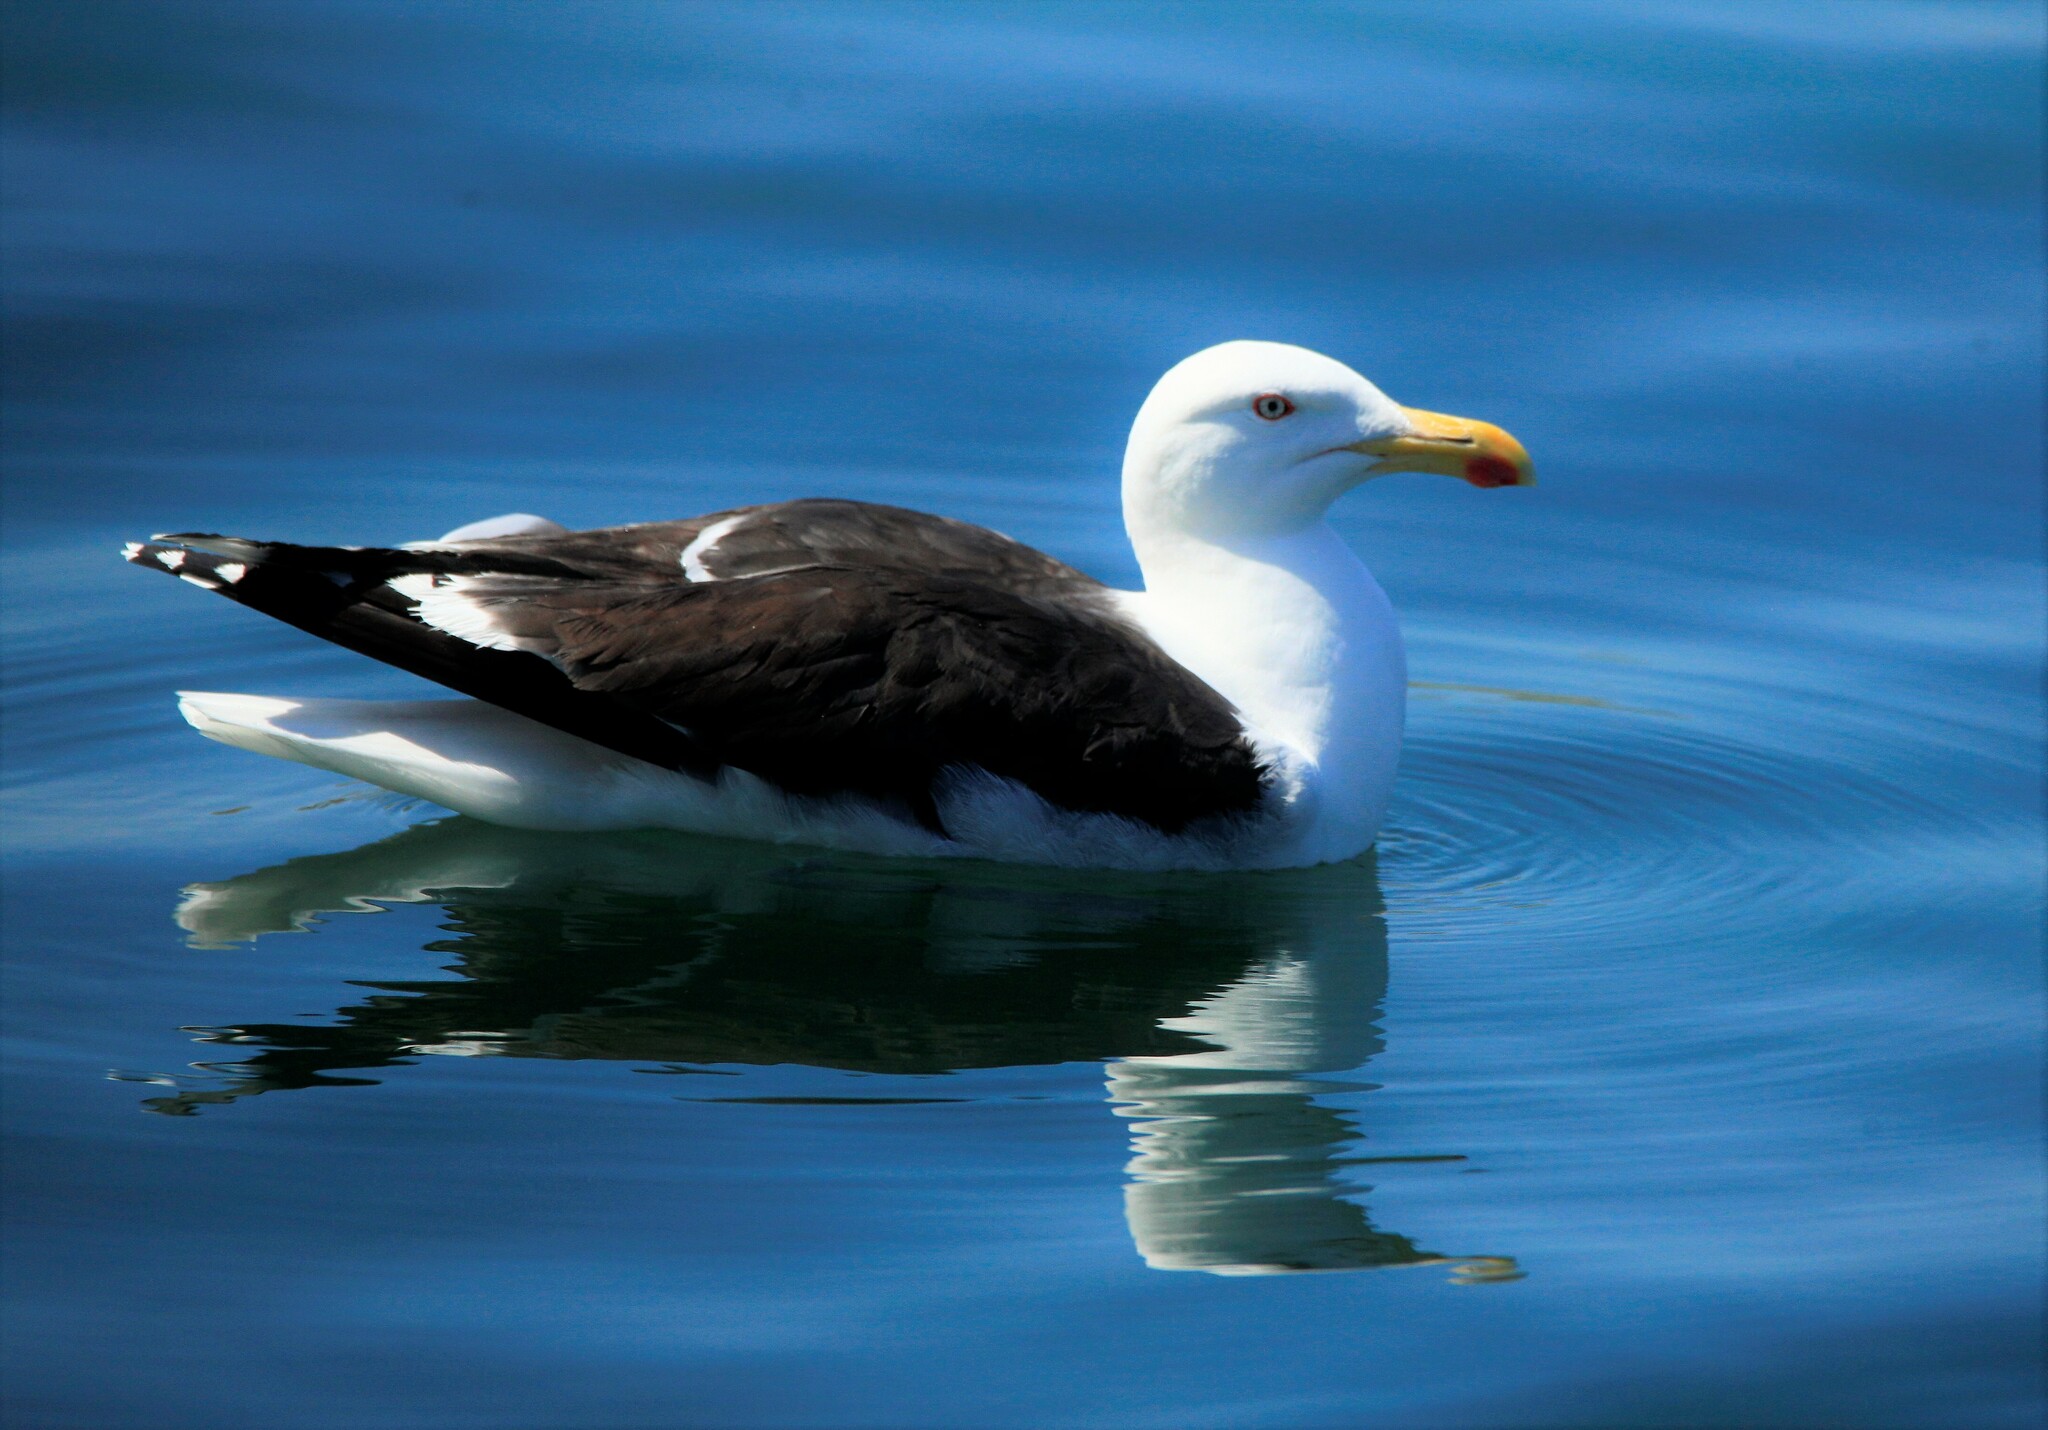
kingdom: Animalia
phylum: Chordata
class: Aves
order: Charadriiformes
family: Laridae
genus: Larus
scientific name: Larus marinus
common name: Great black-backed gull
